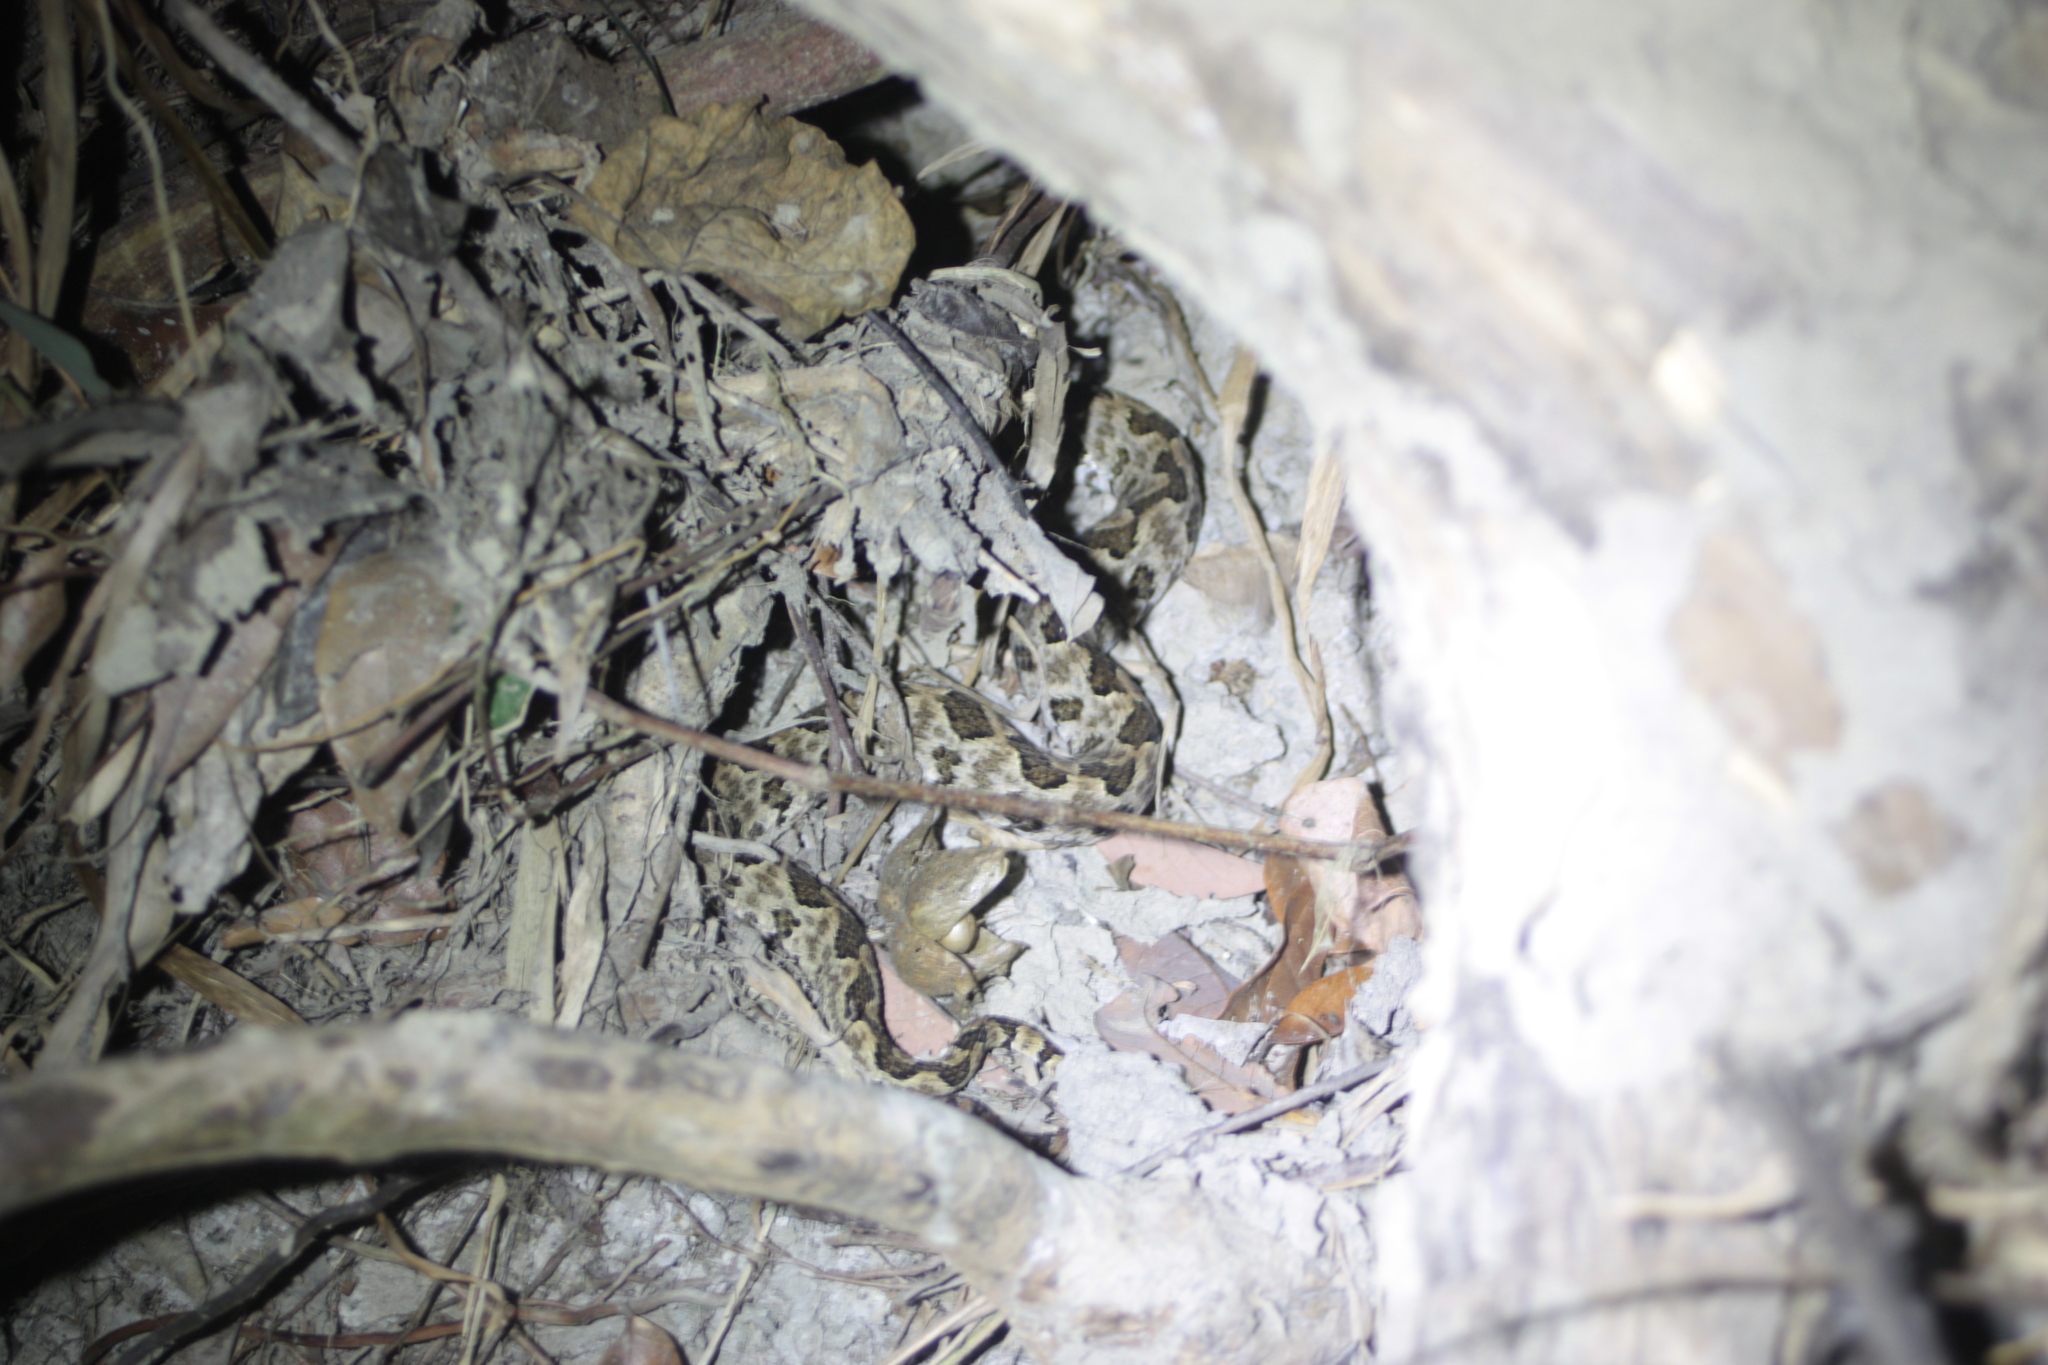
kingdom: Animalia
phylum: Chordata
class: Squamata
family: Viperidae
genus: Protobothrops
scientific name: Protobothrops mucrosquamatus
